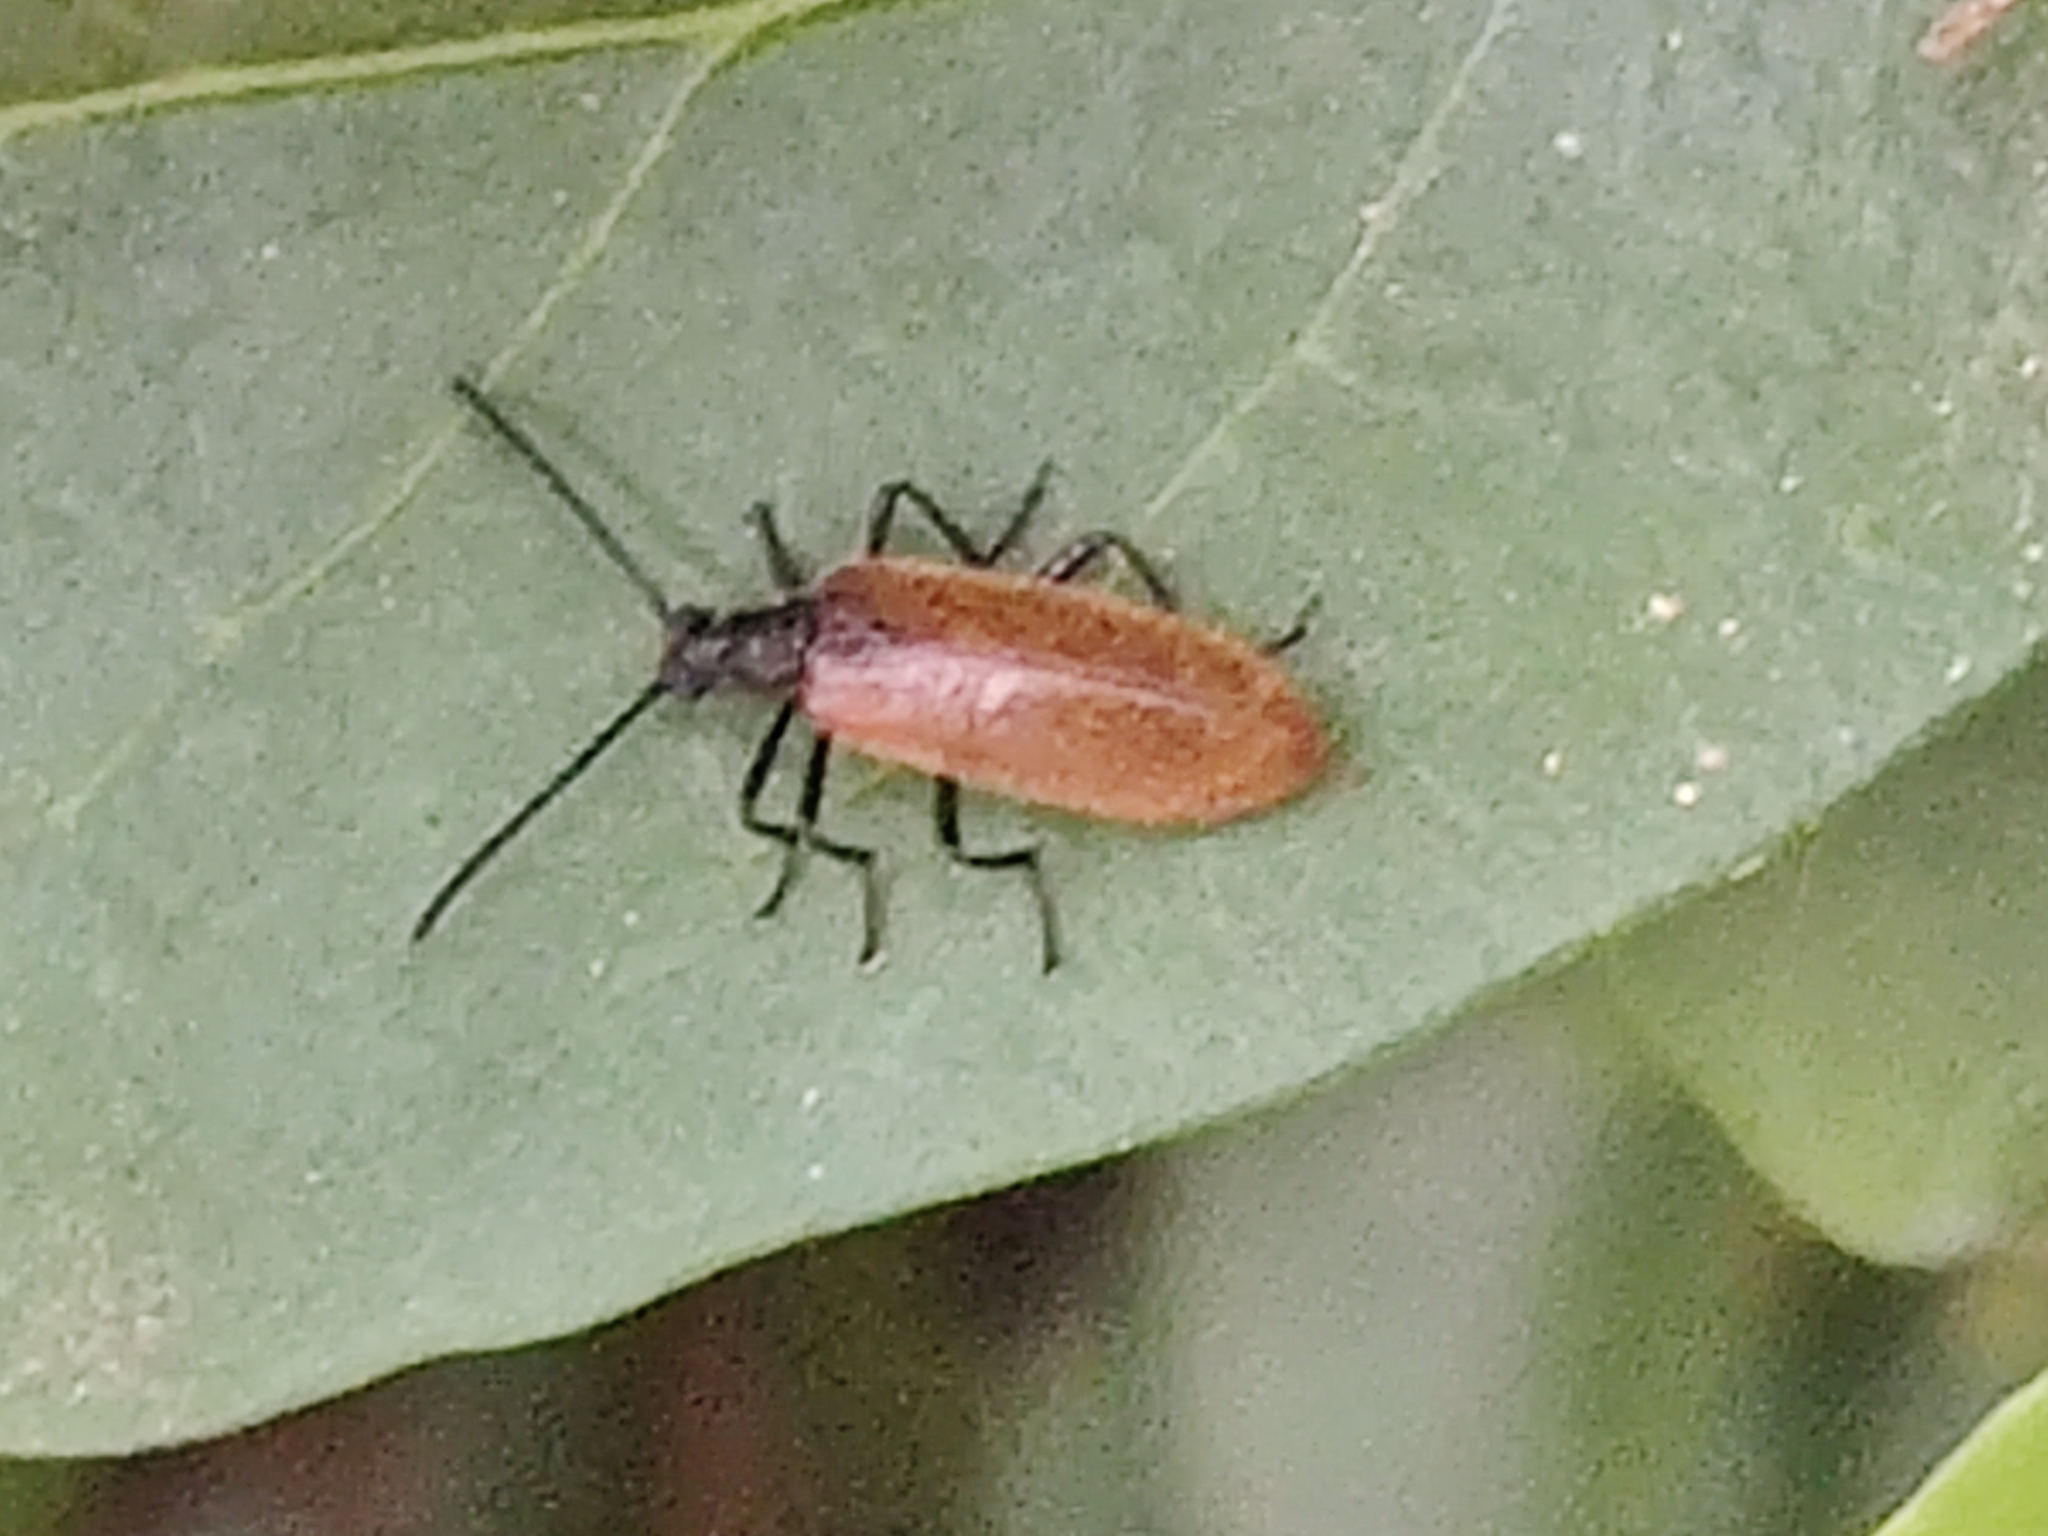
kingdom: Animalia
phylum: Arthropoda
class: Insecta
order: Coleoptera
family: Tenebrionidae
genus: Lagria
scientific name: Lagria hirta
